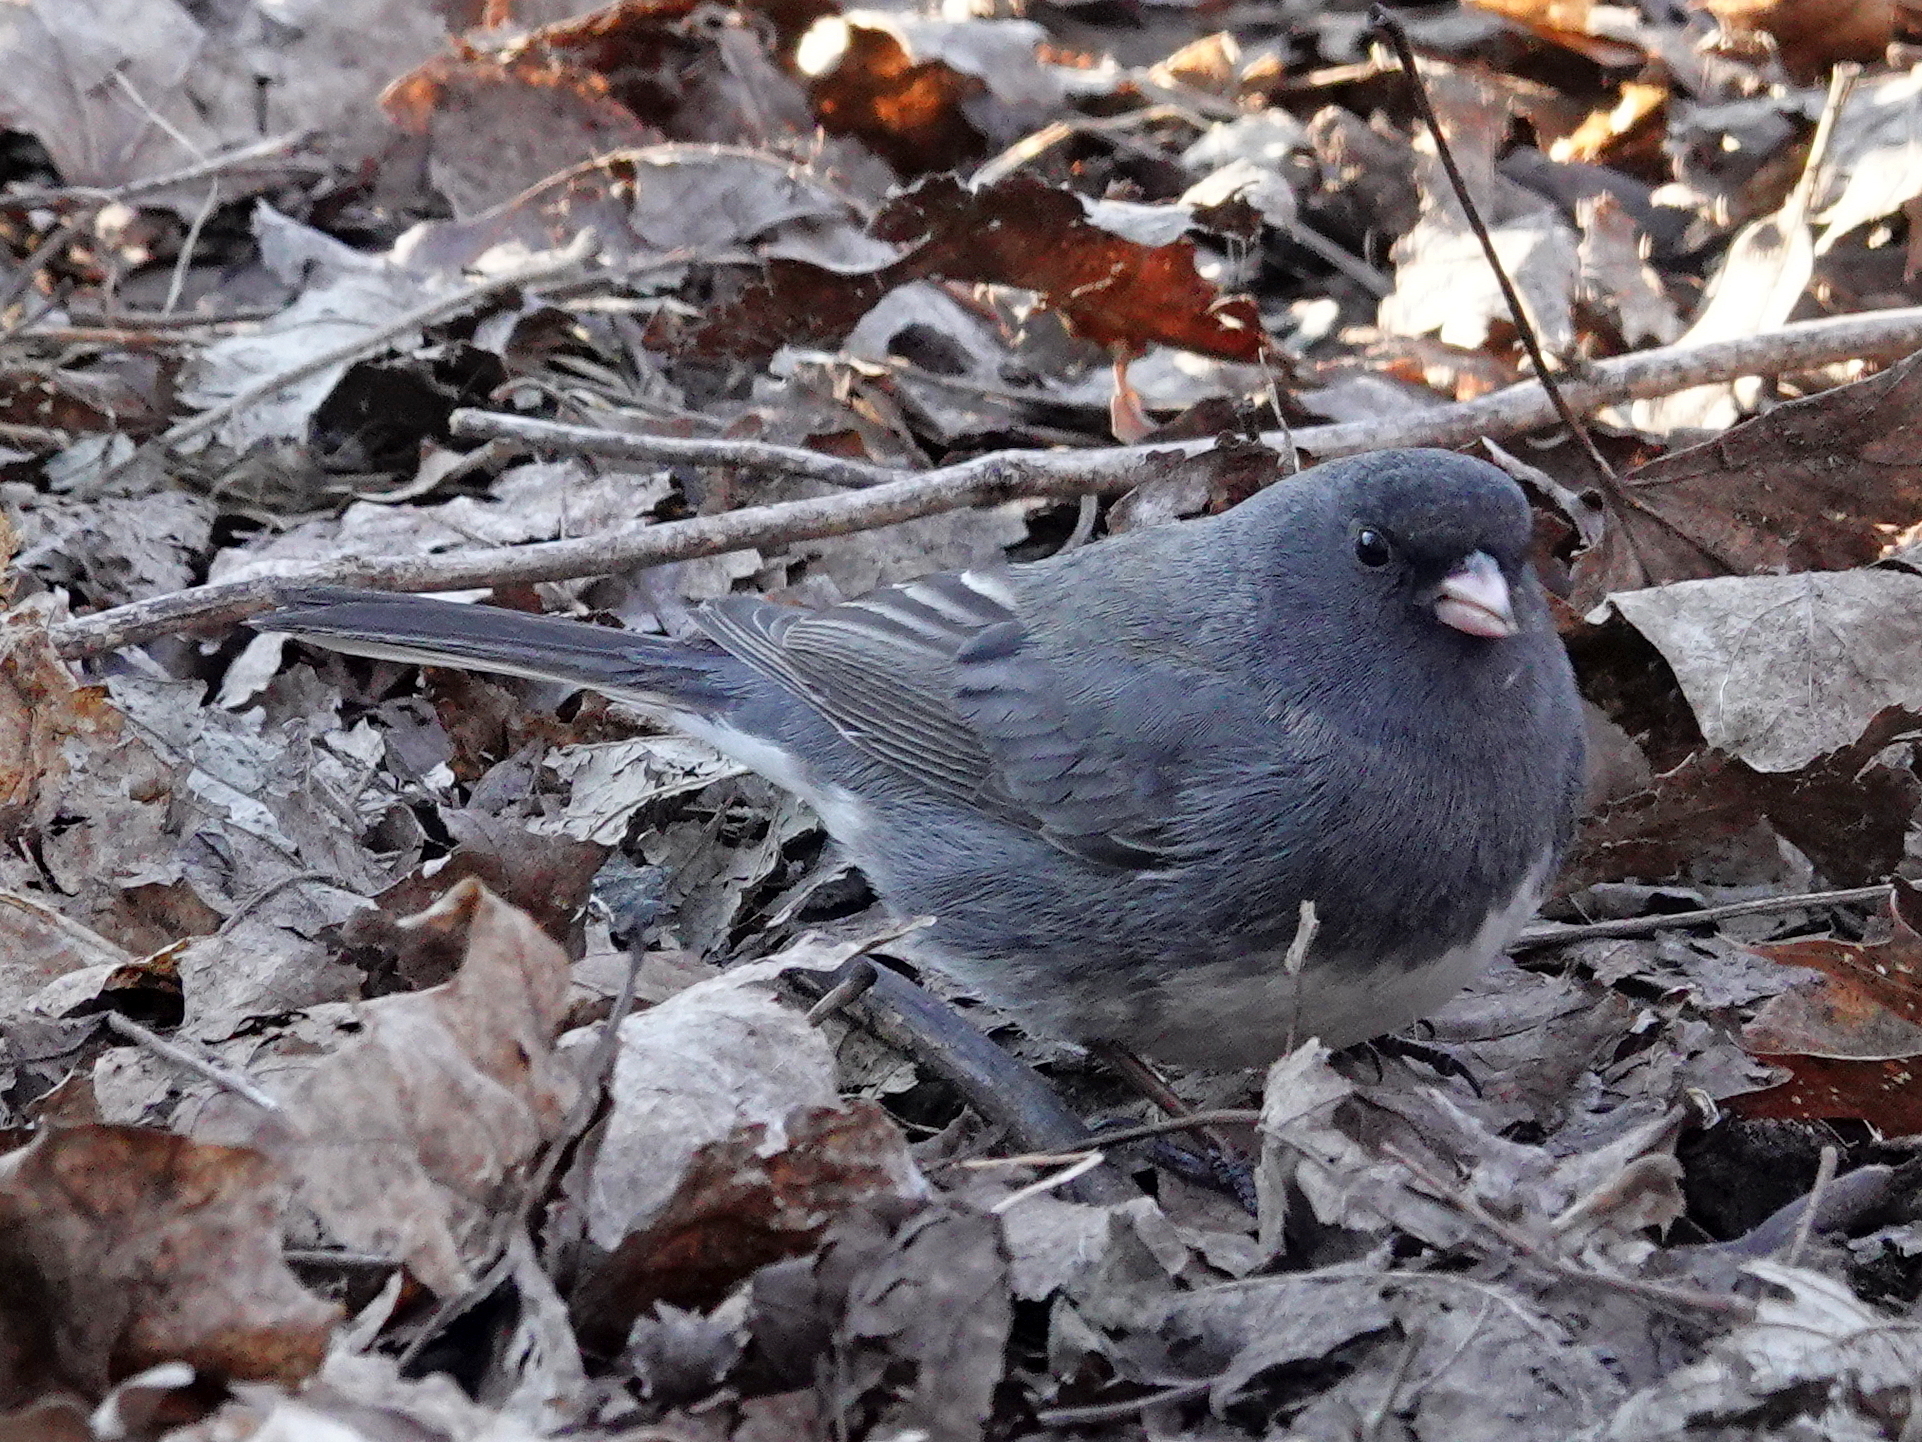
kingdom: Animalia
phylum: Chordata
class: Aves
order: Passeriformes
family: Passerellidae
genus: Junco
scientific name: Junco hyemalis
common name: Dark-eyed junco
